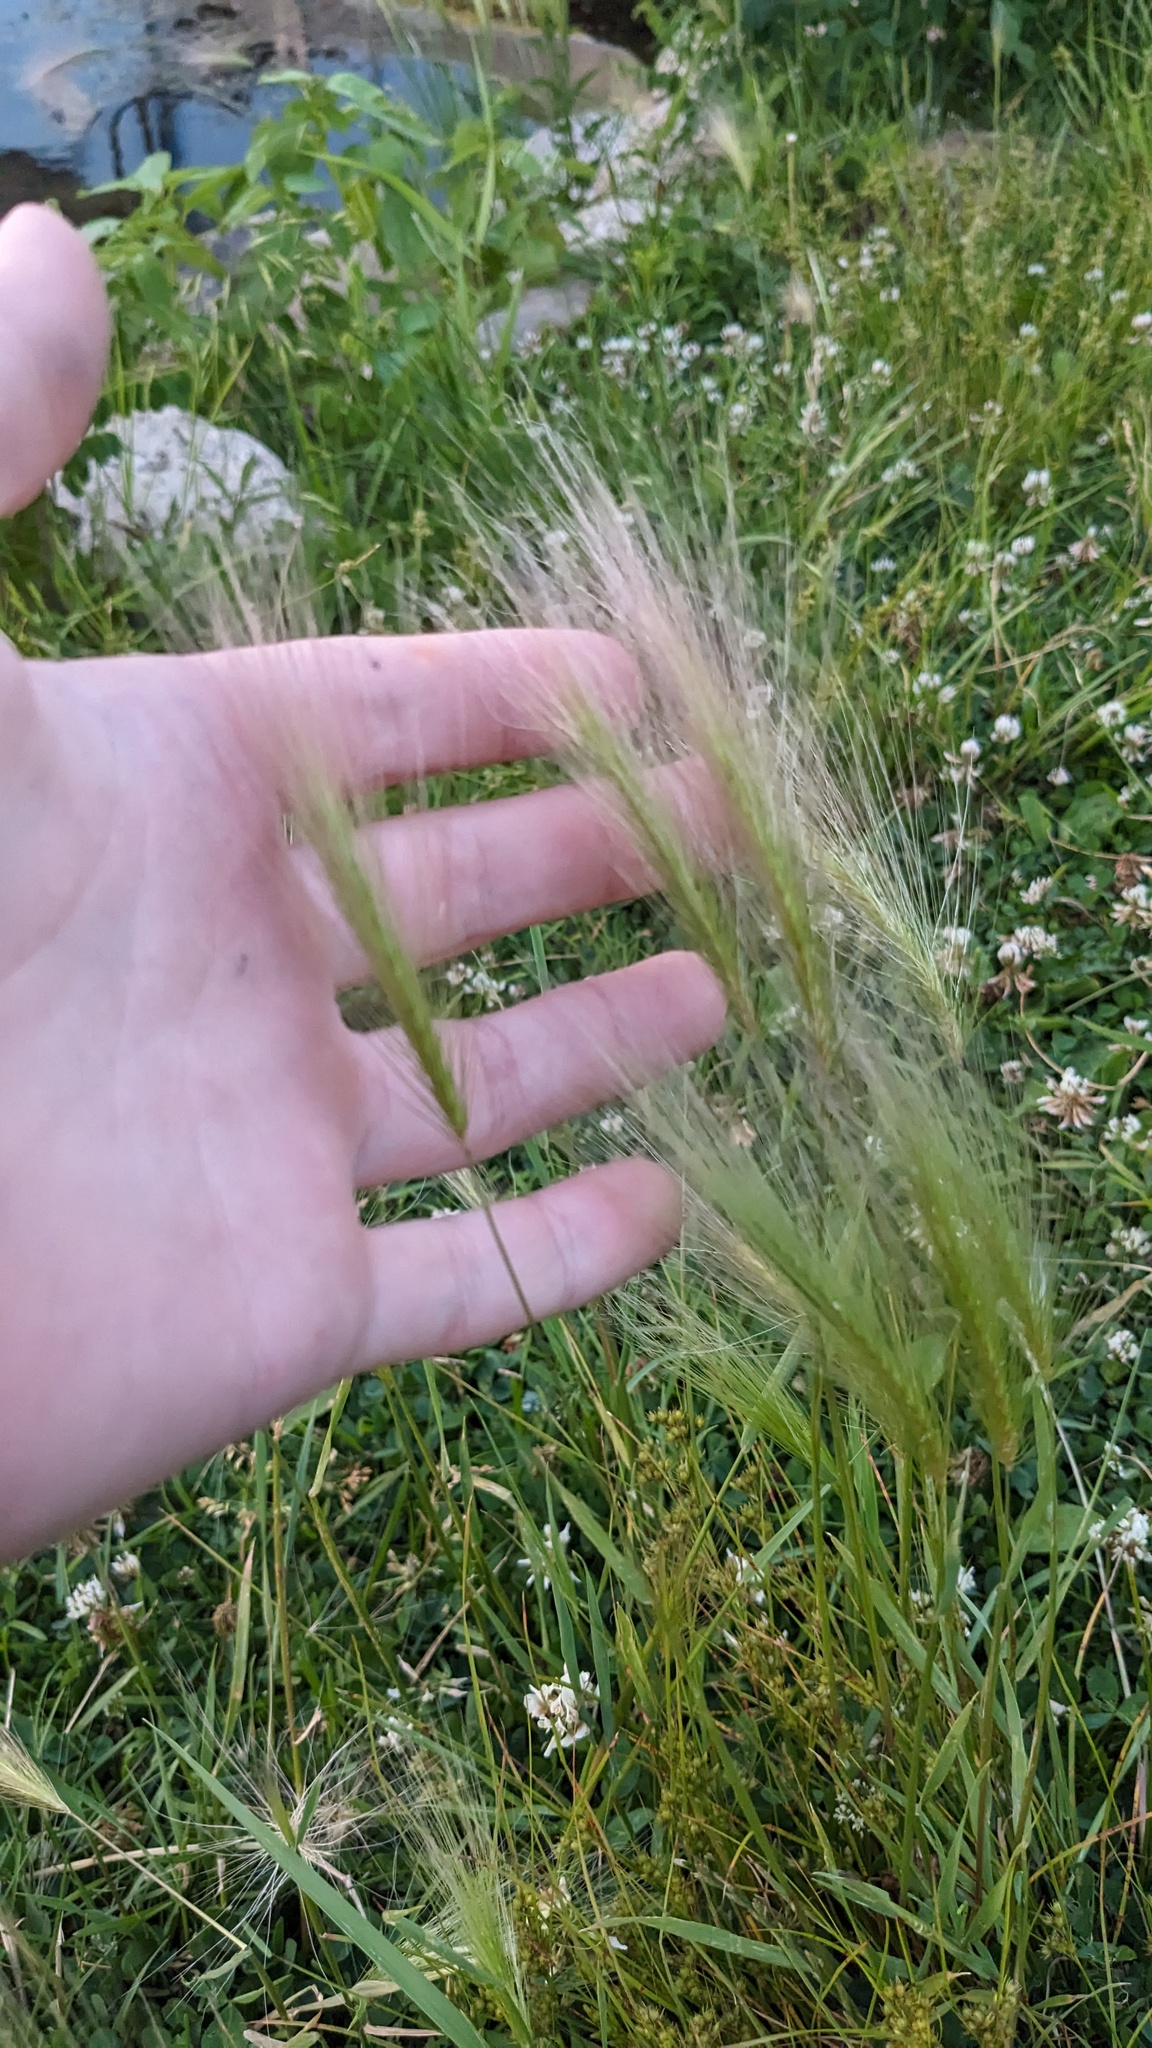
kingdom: Plantae
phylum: Tracheophyta
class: Liliopsida
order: Poales
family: Poaceae
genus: Hordeum
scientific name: Hordeum jubatum
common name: Foxtail barley
